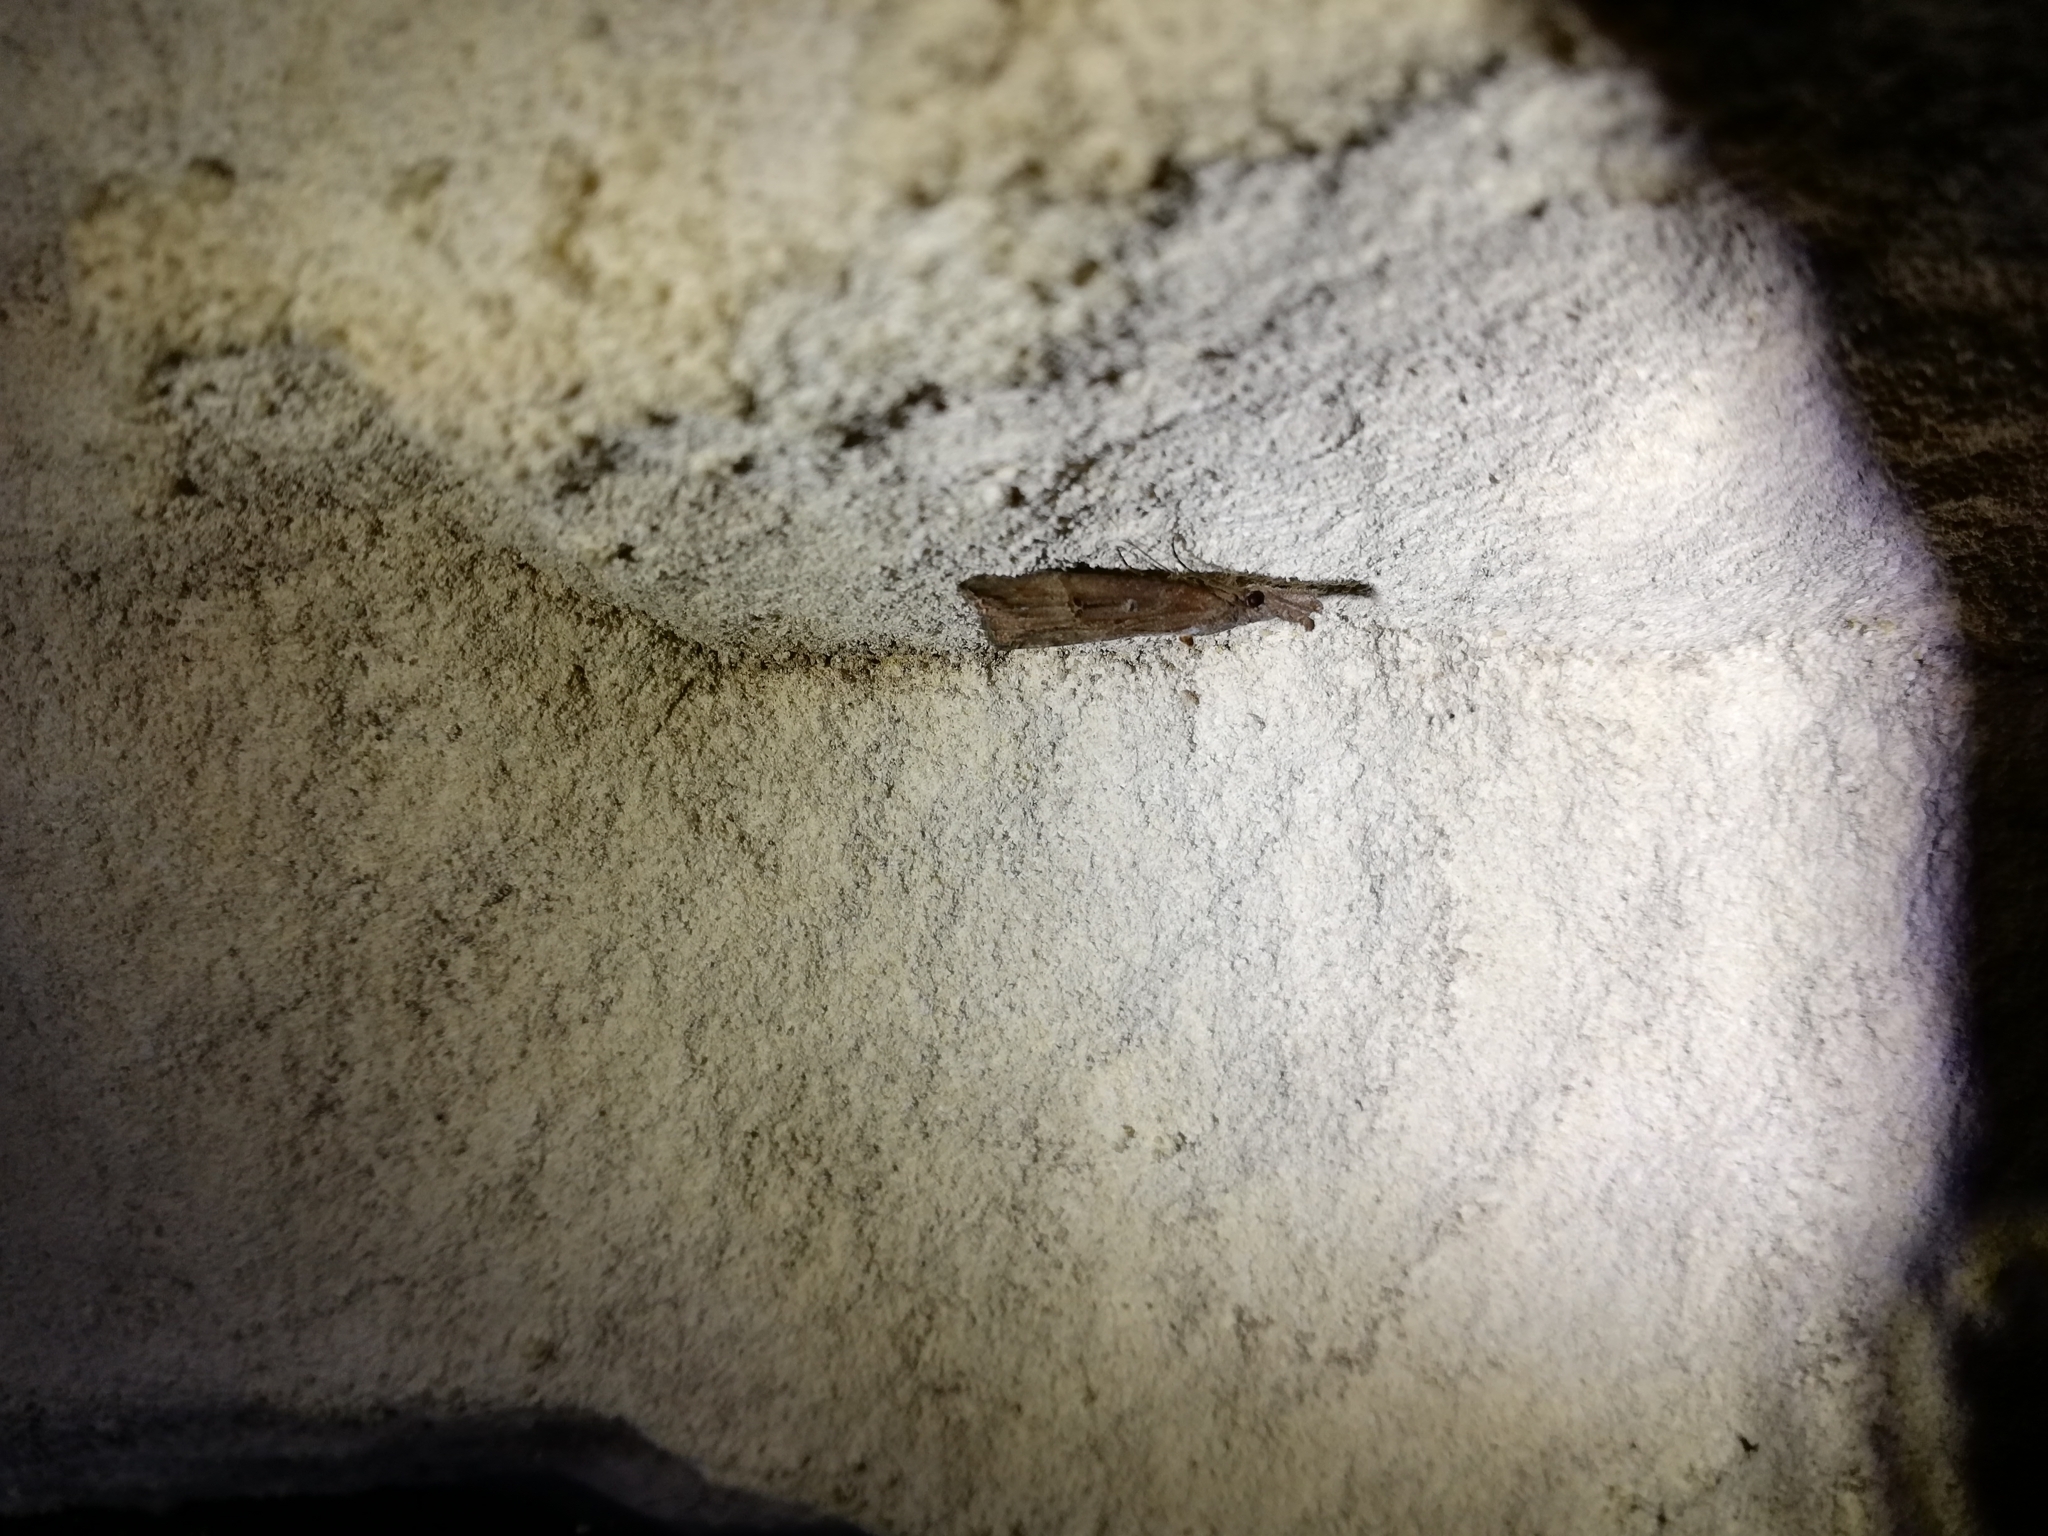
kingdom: Animalia
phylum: Arthropoda
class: Insecta
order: Lepidoptera
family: Erebidae
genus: Hypena
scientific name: Hypena rostralis
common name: Buttoned snout
